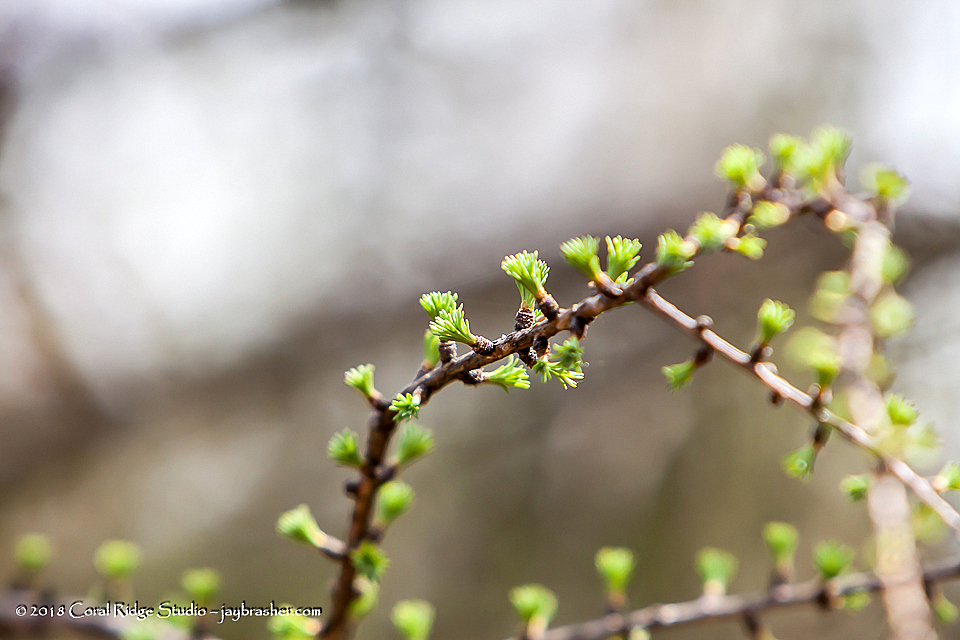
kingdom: Plantae
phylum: Tracheophyta
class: Pinopsida
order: Pinales
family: Pinaceae
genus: Larix
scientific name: Larix laricina
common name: American larch
